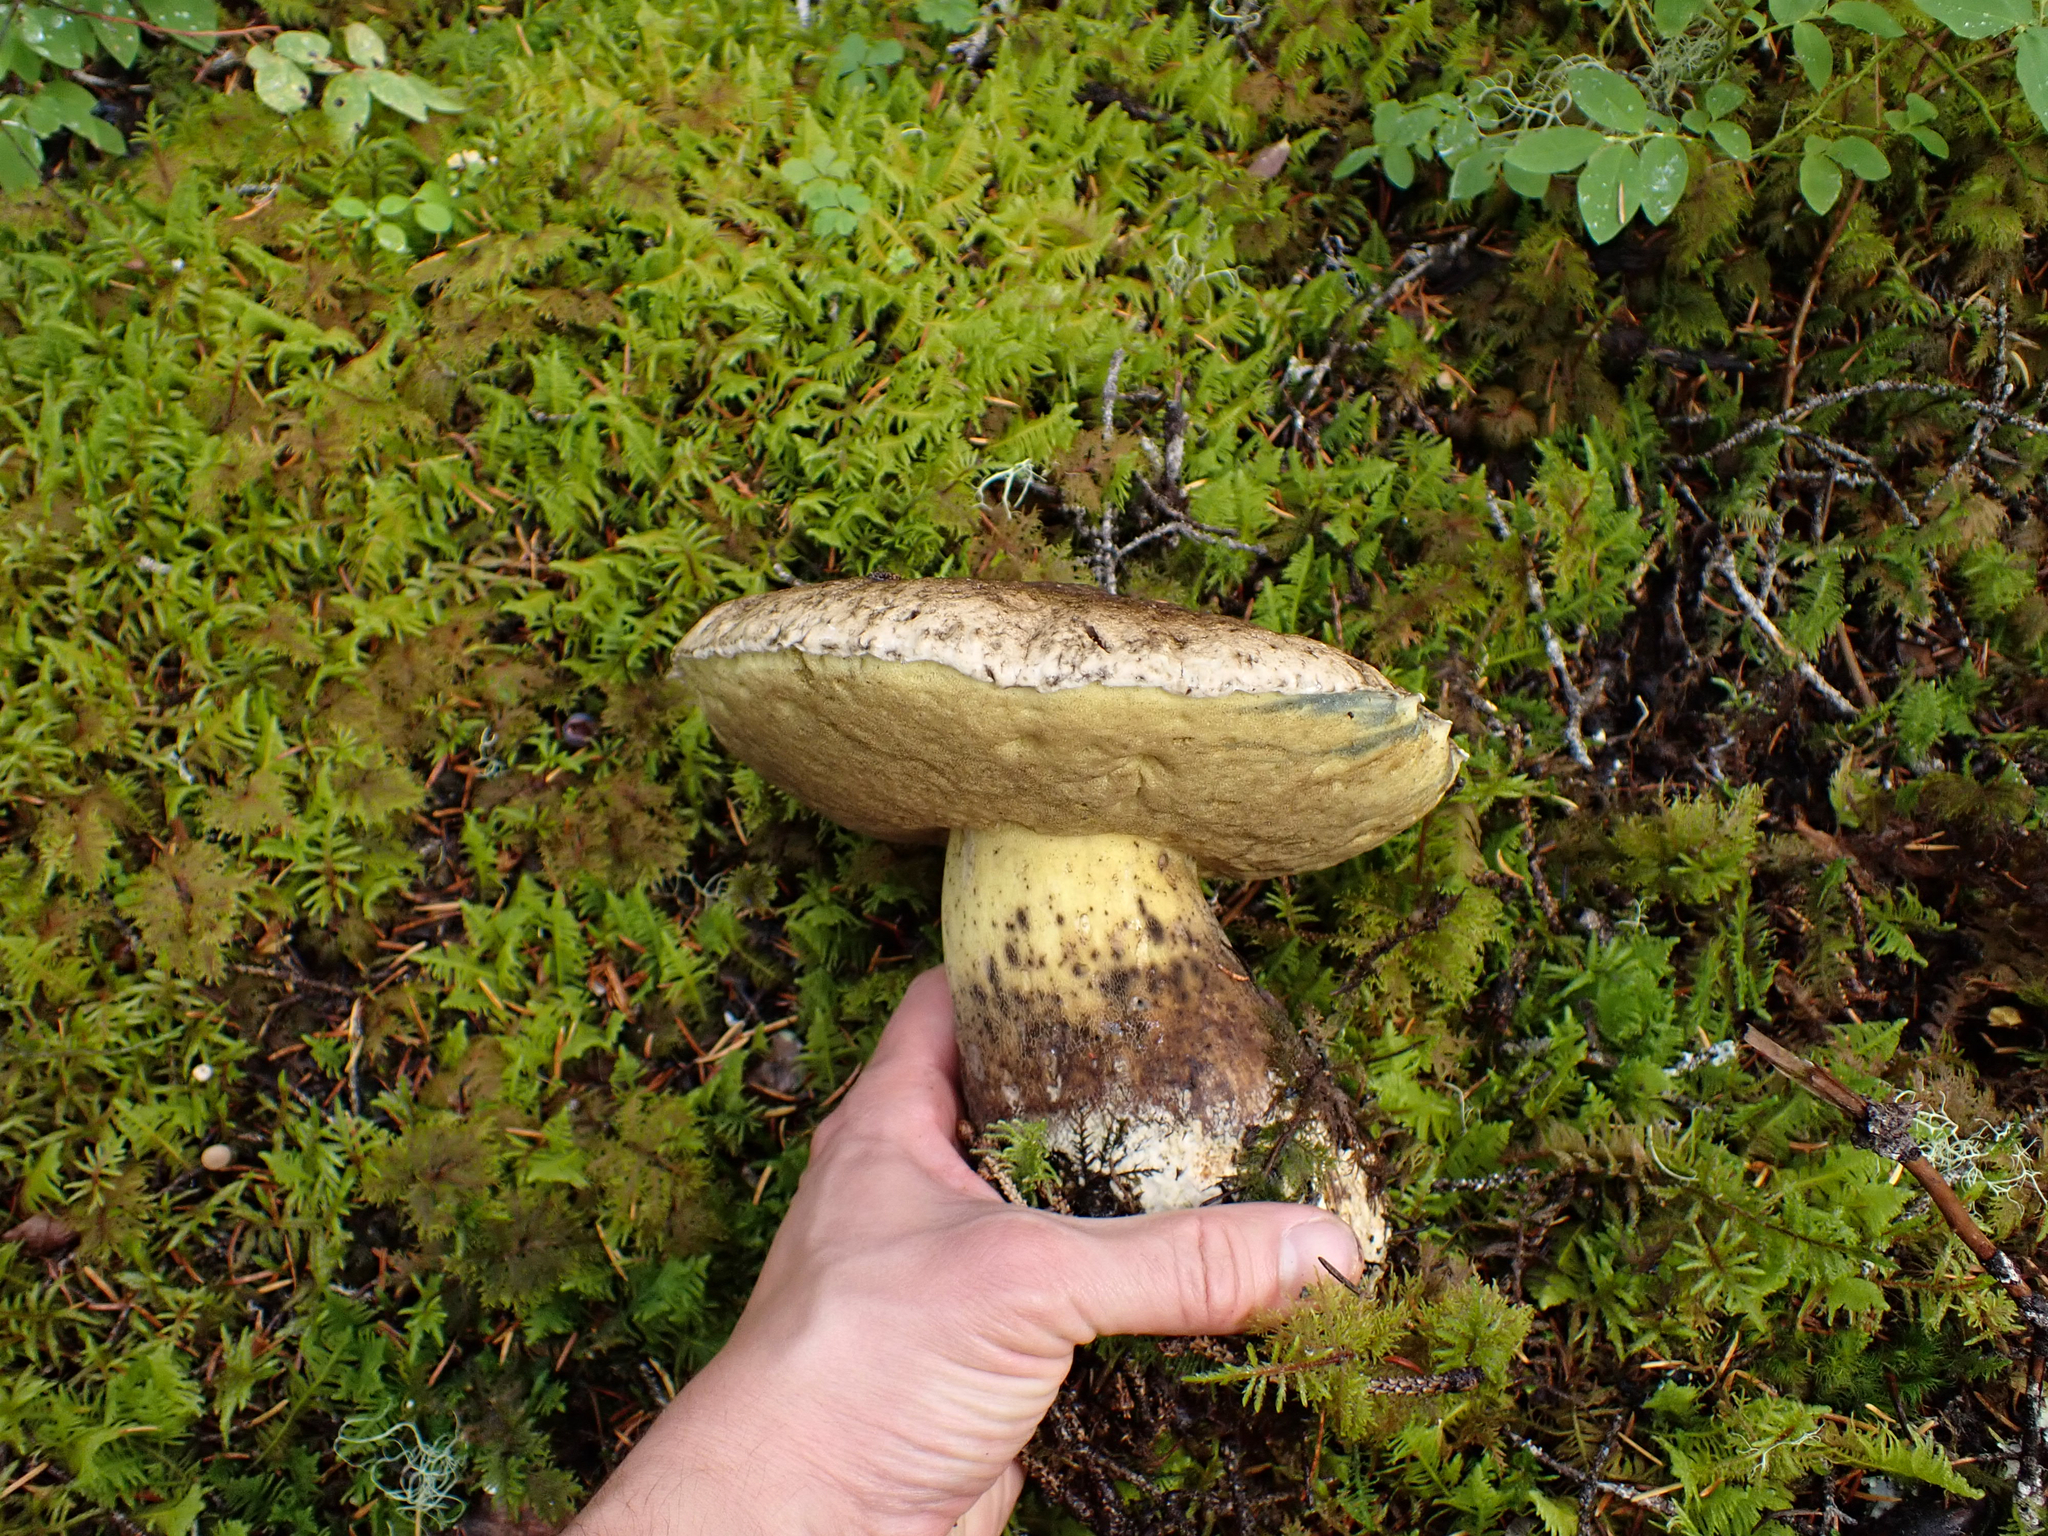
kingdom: Fungi
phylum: Basidiomycota
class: Agaricomycetes
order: Boletales
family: Boletaceae
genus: Caloboletus
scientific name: Caloboletus conifericola
